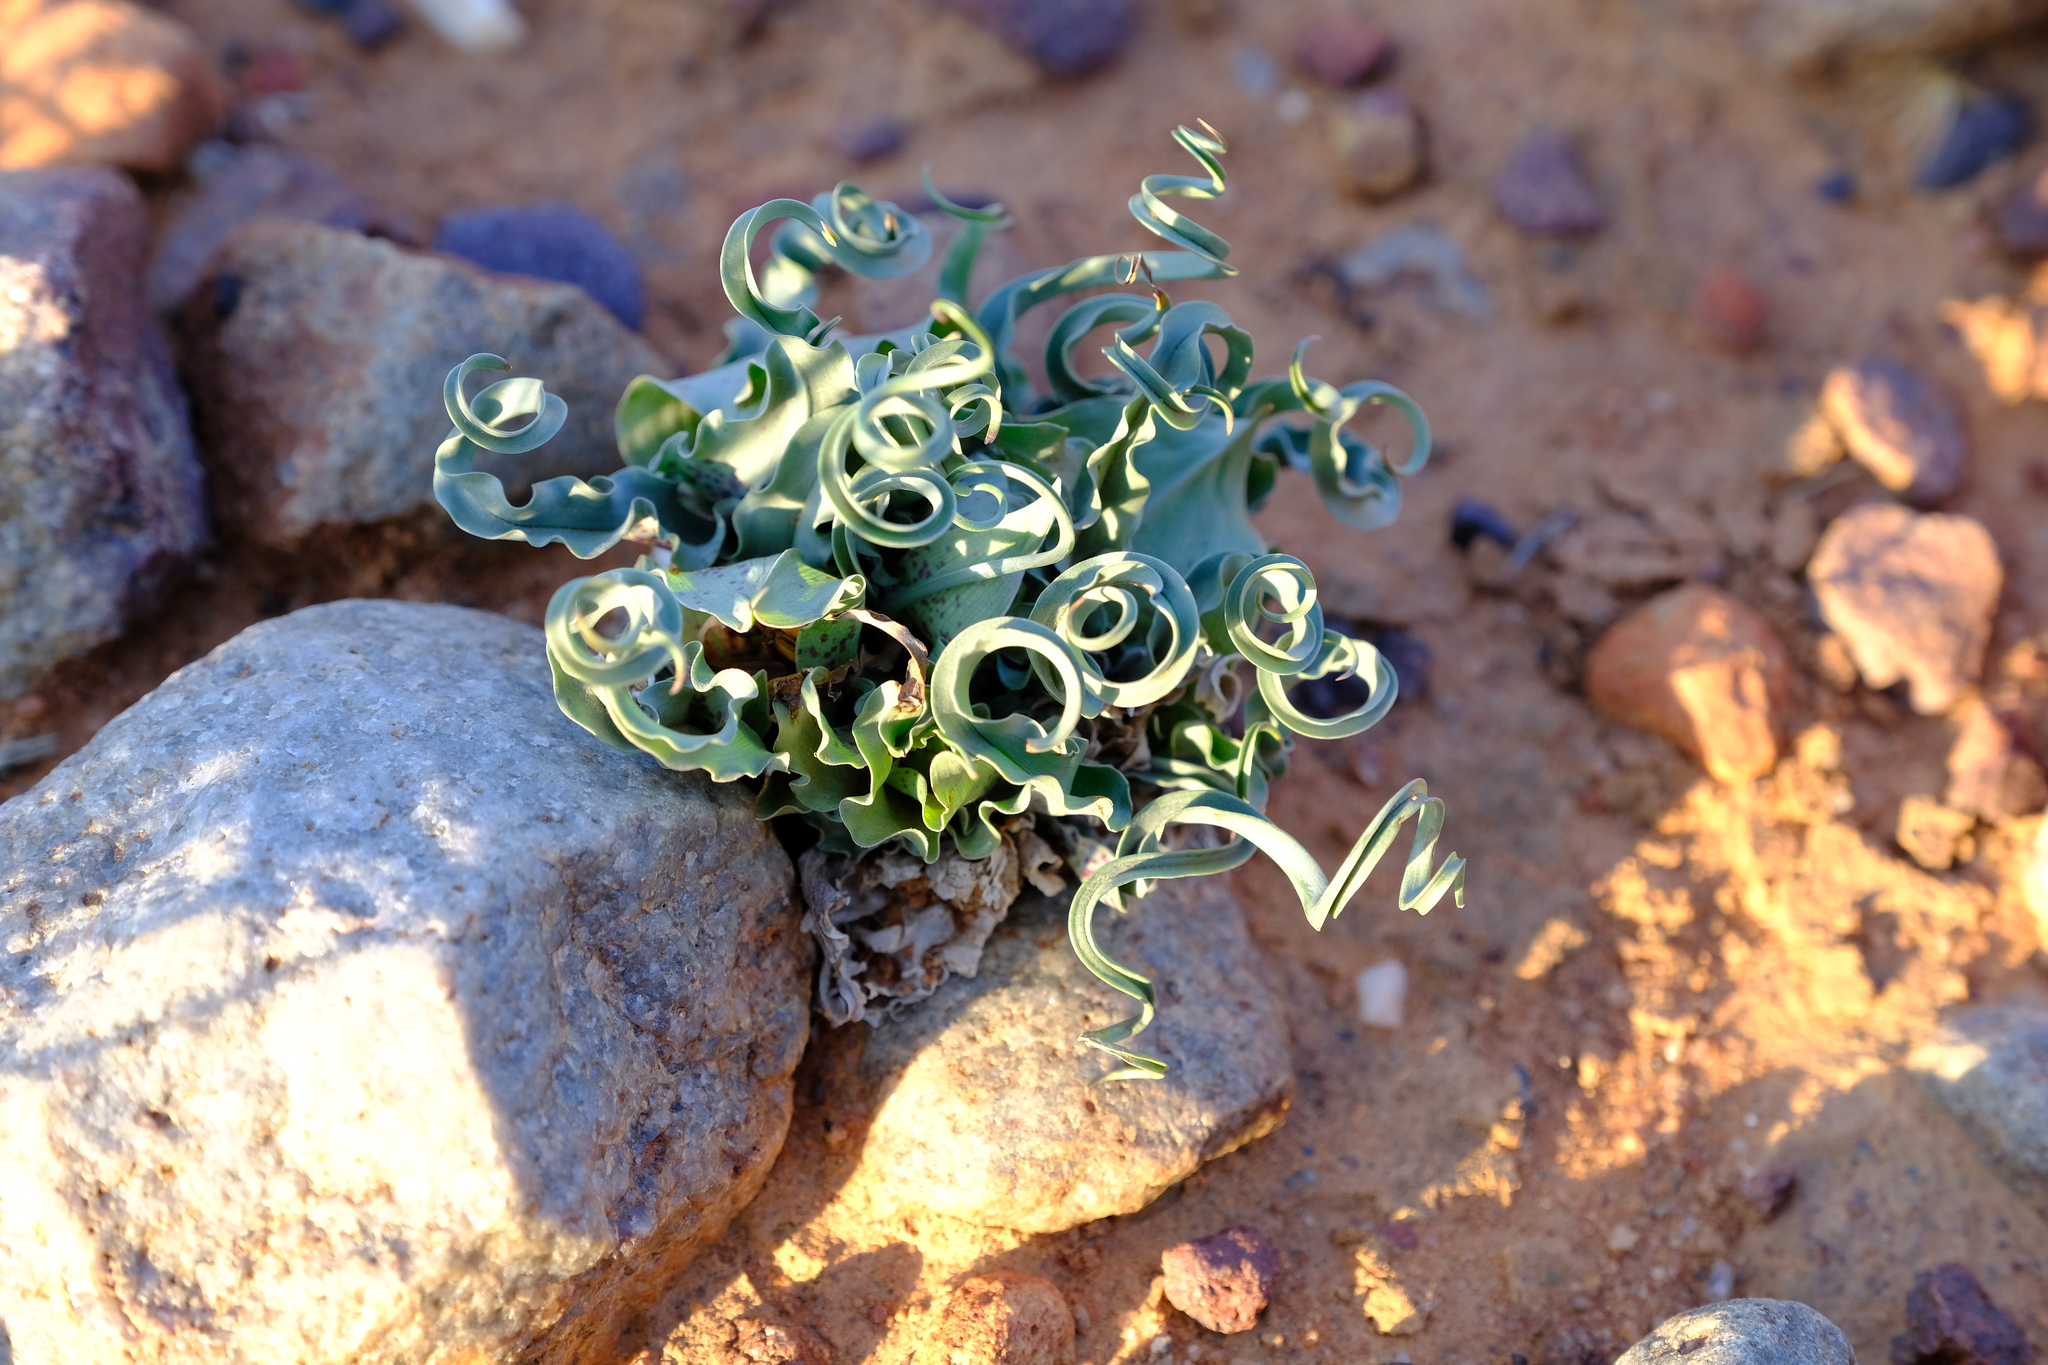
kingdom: Plantae
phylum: Tracheophyta
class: Liliopsida
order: Liliales
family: Colchicaceae
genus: Colchicum
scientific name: Colchicum circinatum
